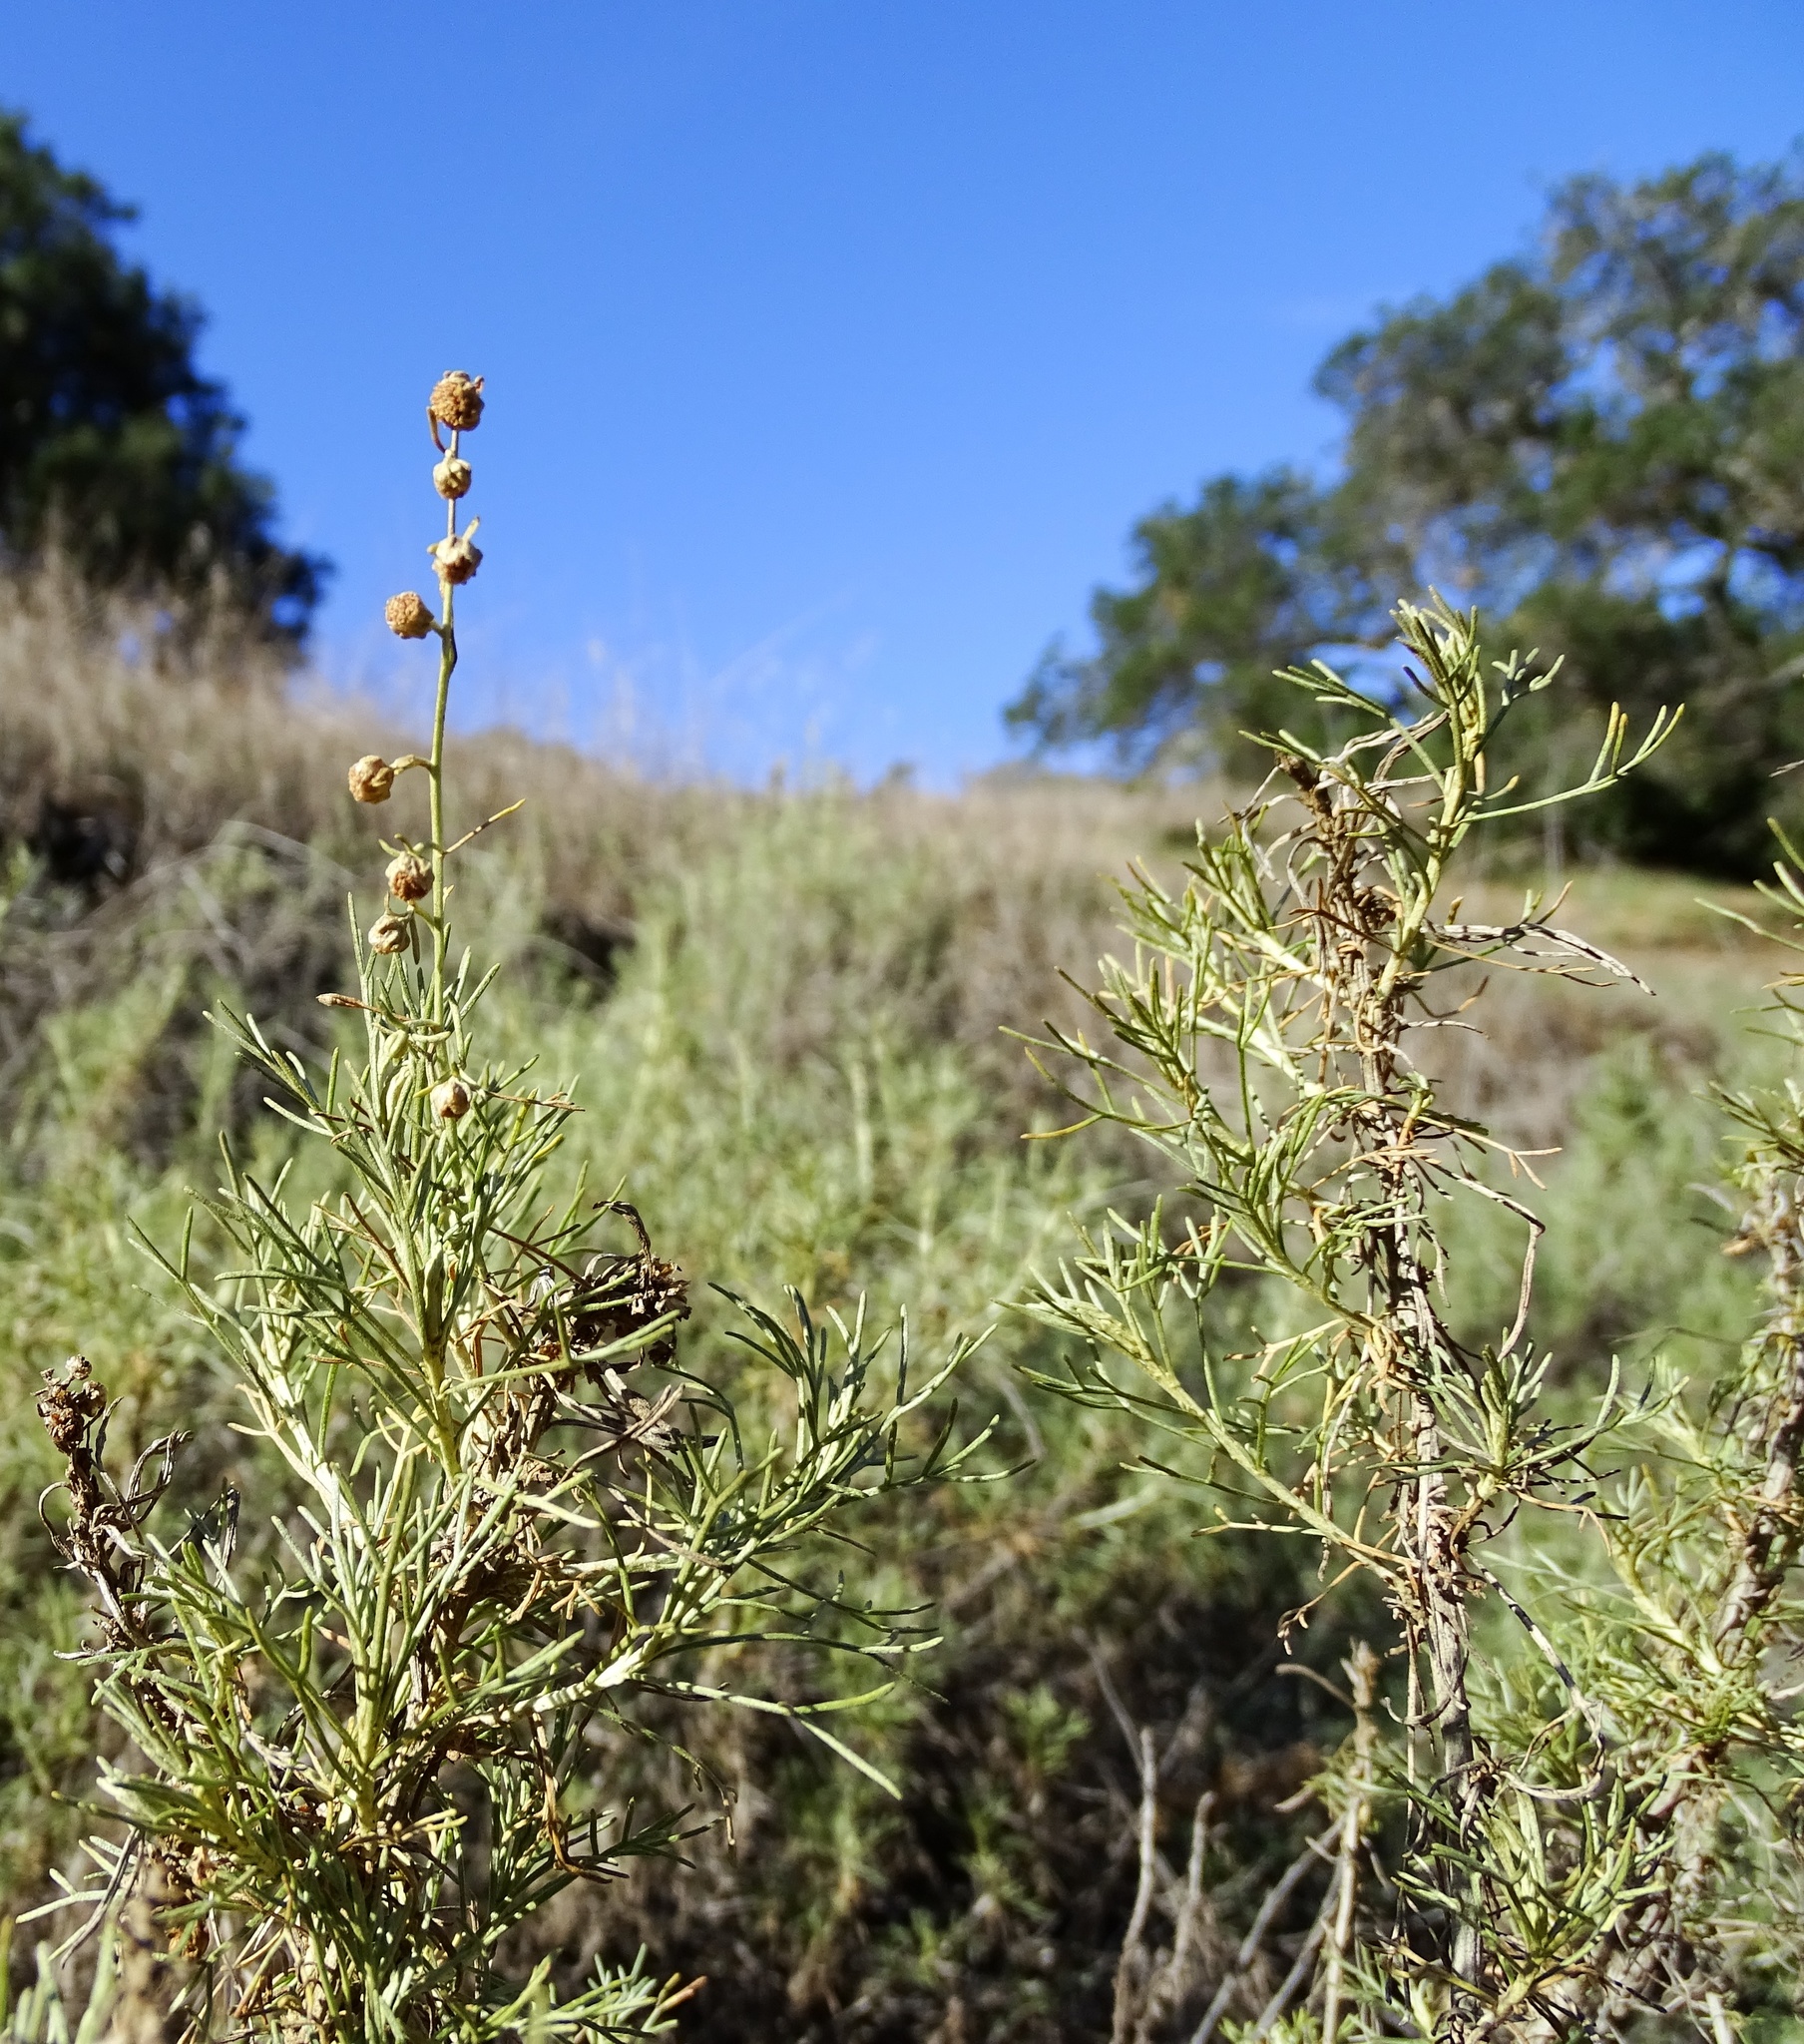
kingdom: Plantae
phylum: Tracheophyta
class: Magnoliopsida
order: Asterales
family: Asteraceae
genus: Artemisia
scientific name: Artemisia californica
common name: California sagebrush
